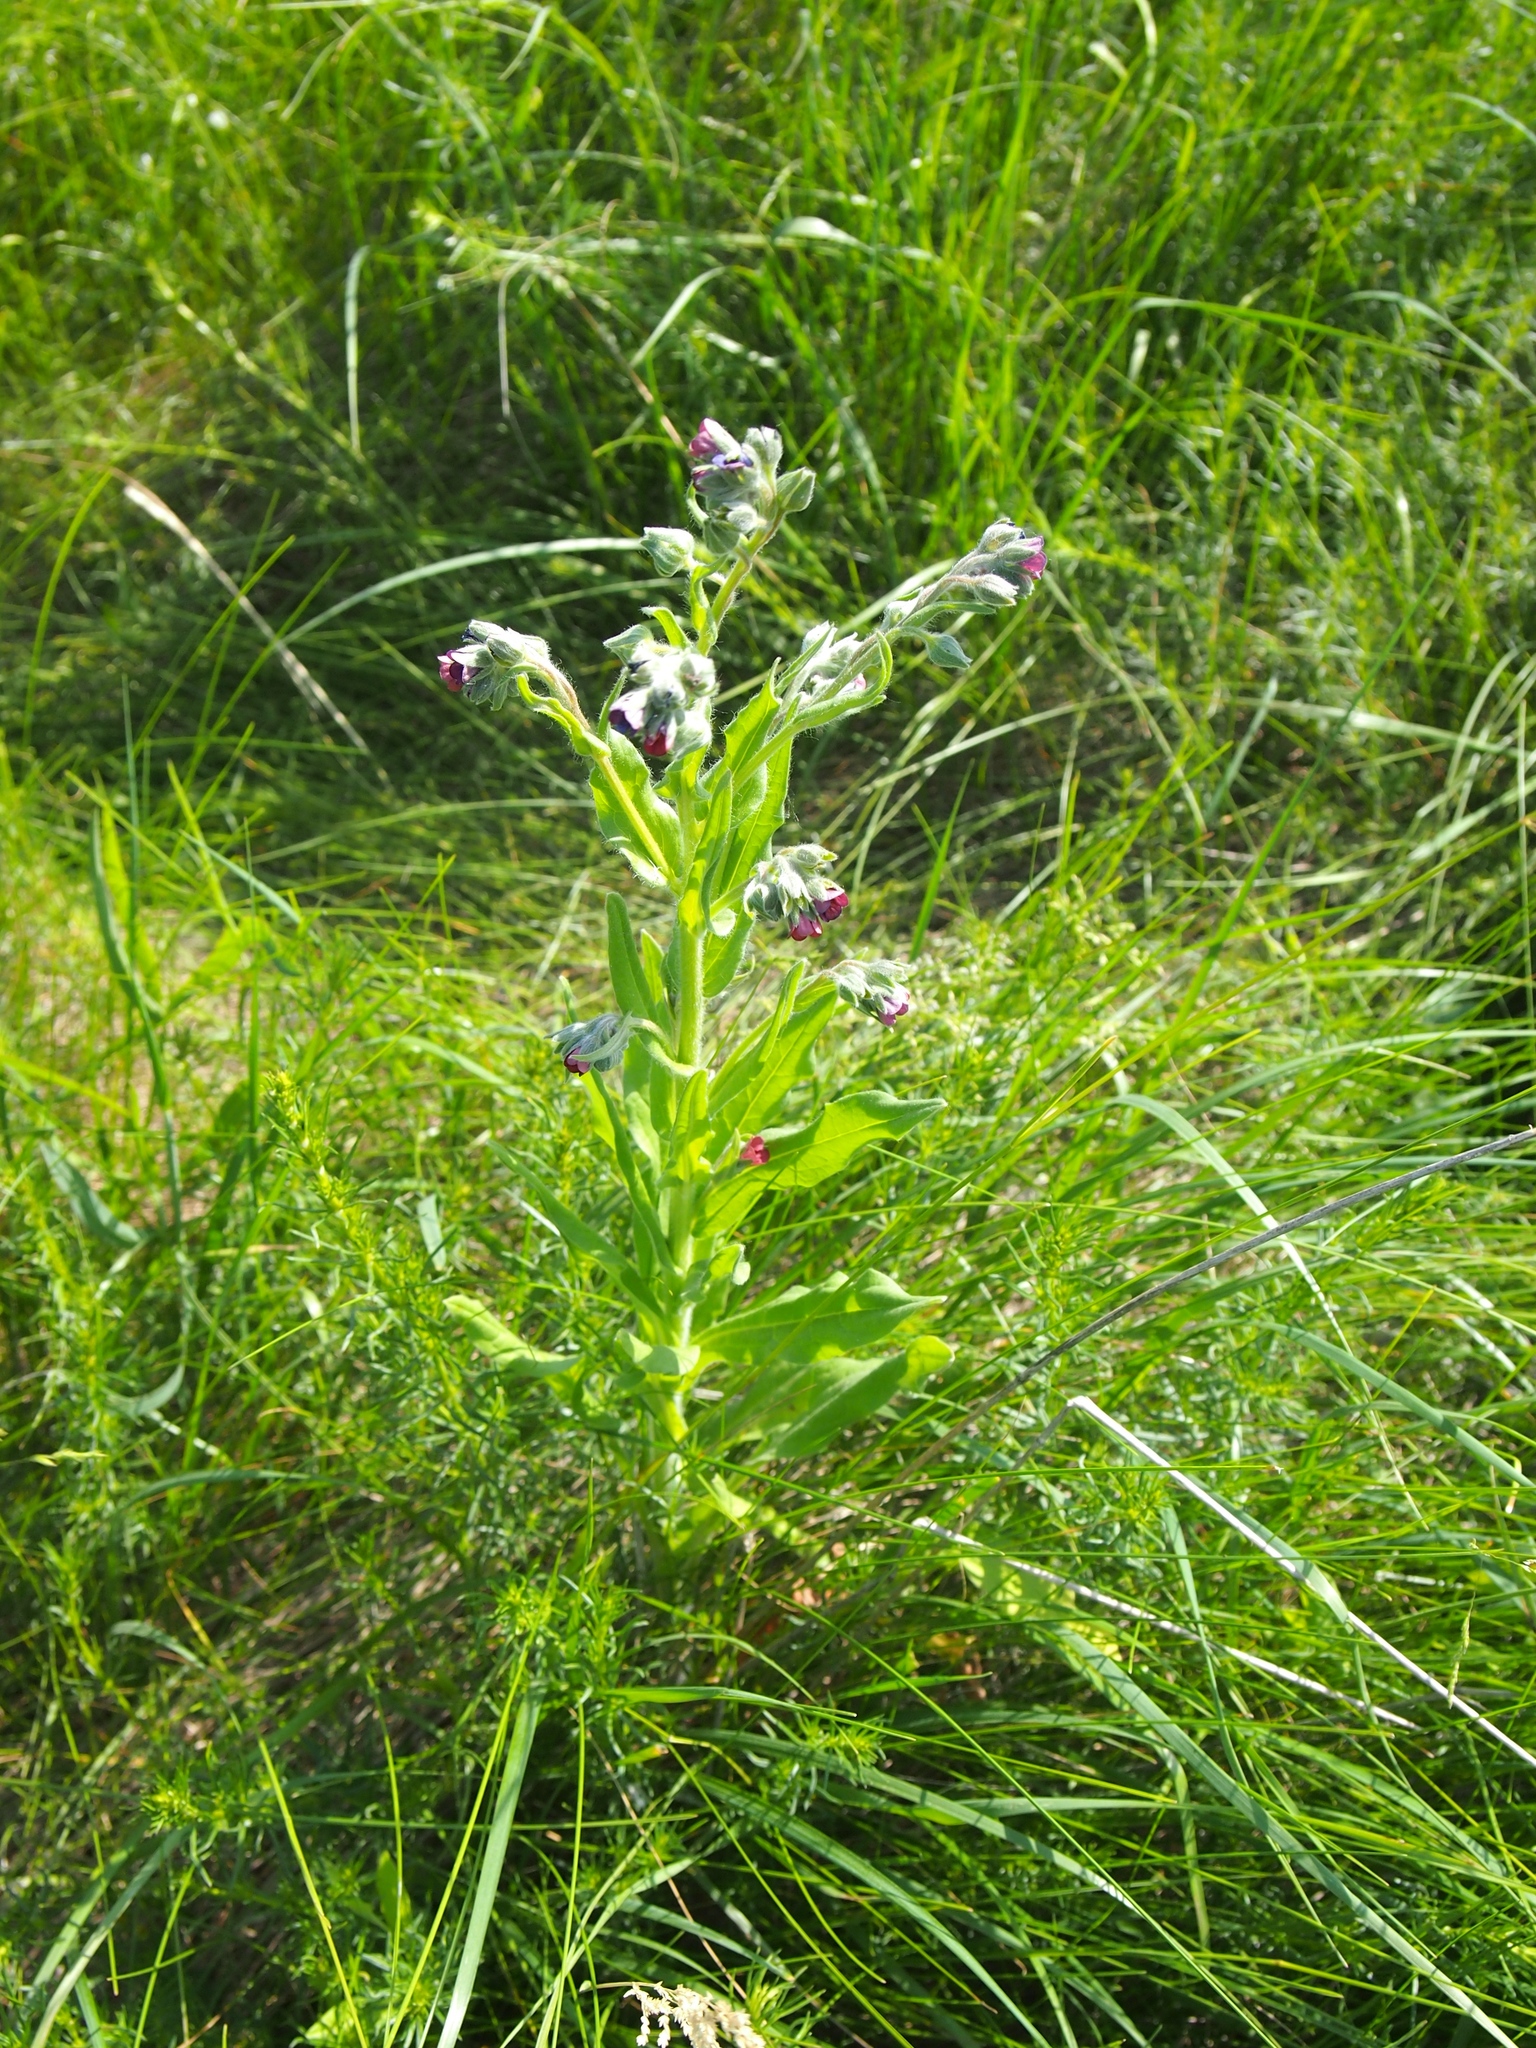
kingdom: Plantae
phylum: Tracheophyta
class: Magnoliopsida
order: Boraginales
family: Boraginaceae
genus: Cynoglossum
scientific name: Cynoglossum officinale
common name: Hound's-tongue
